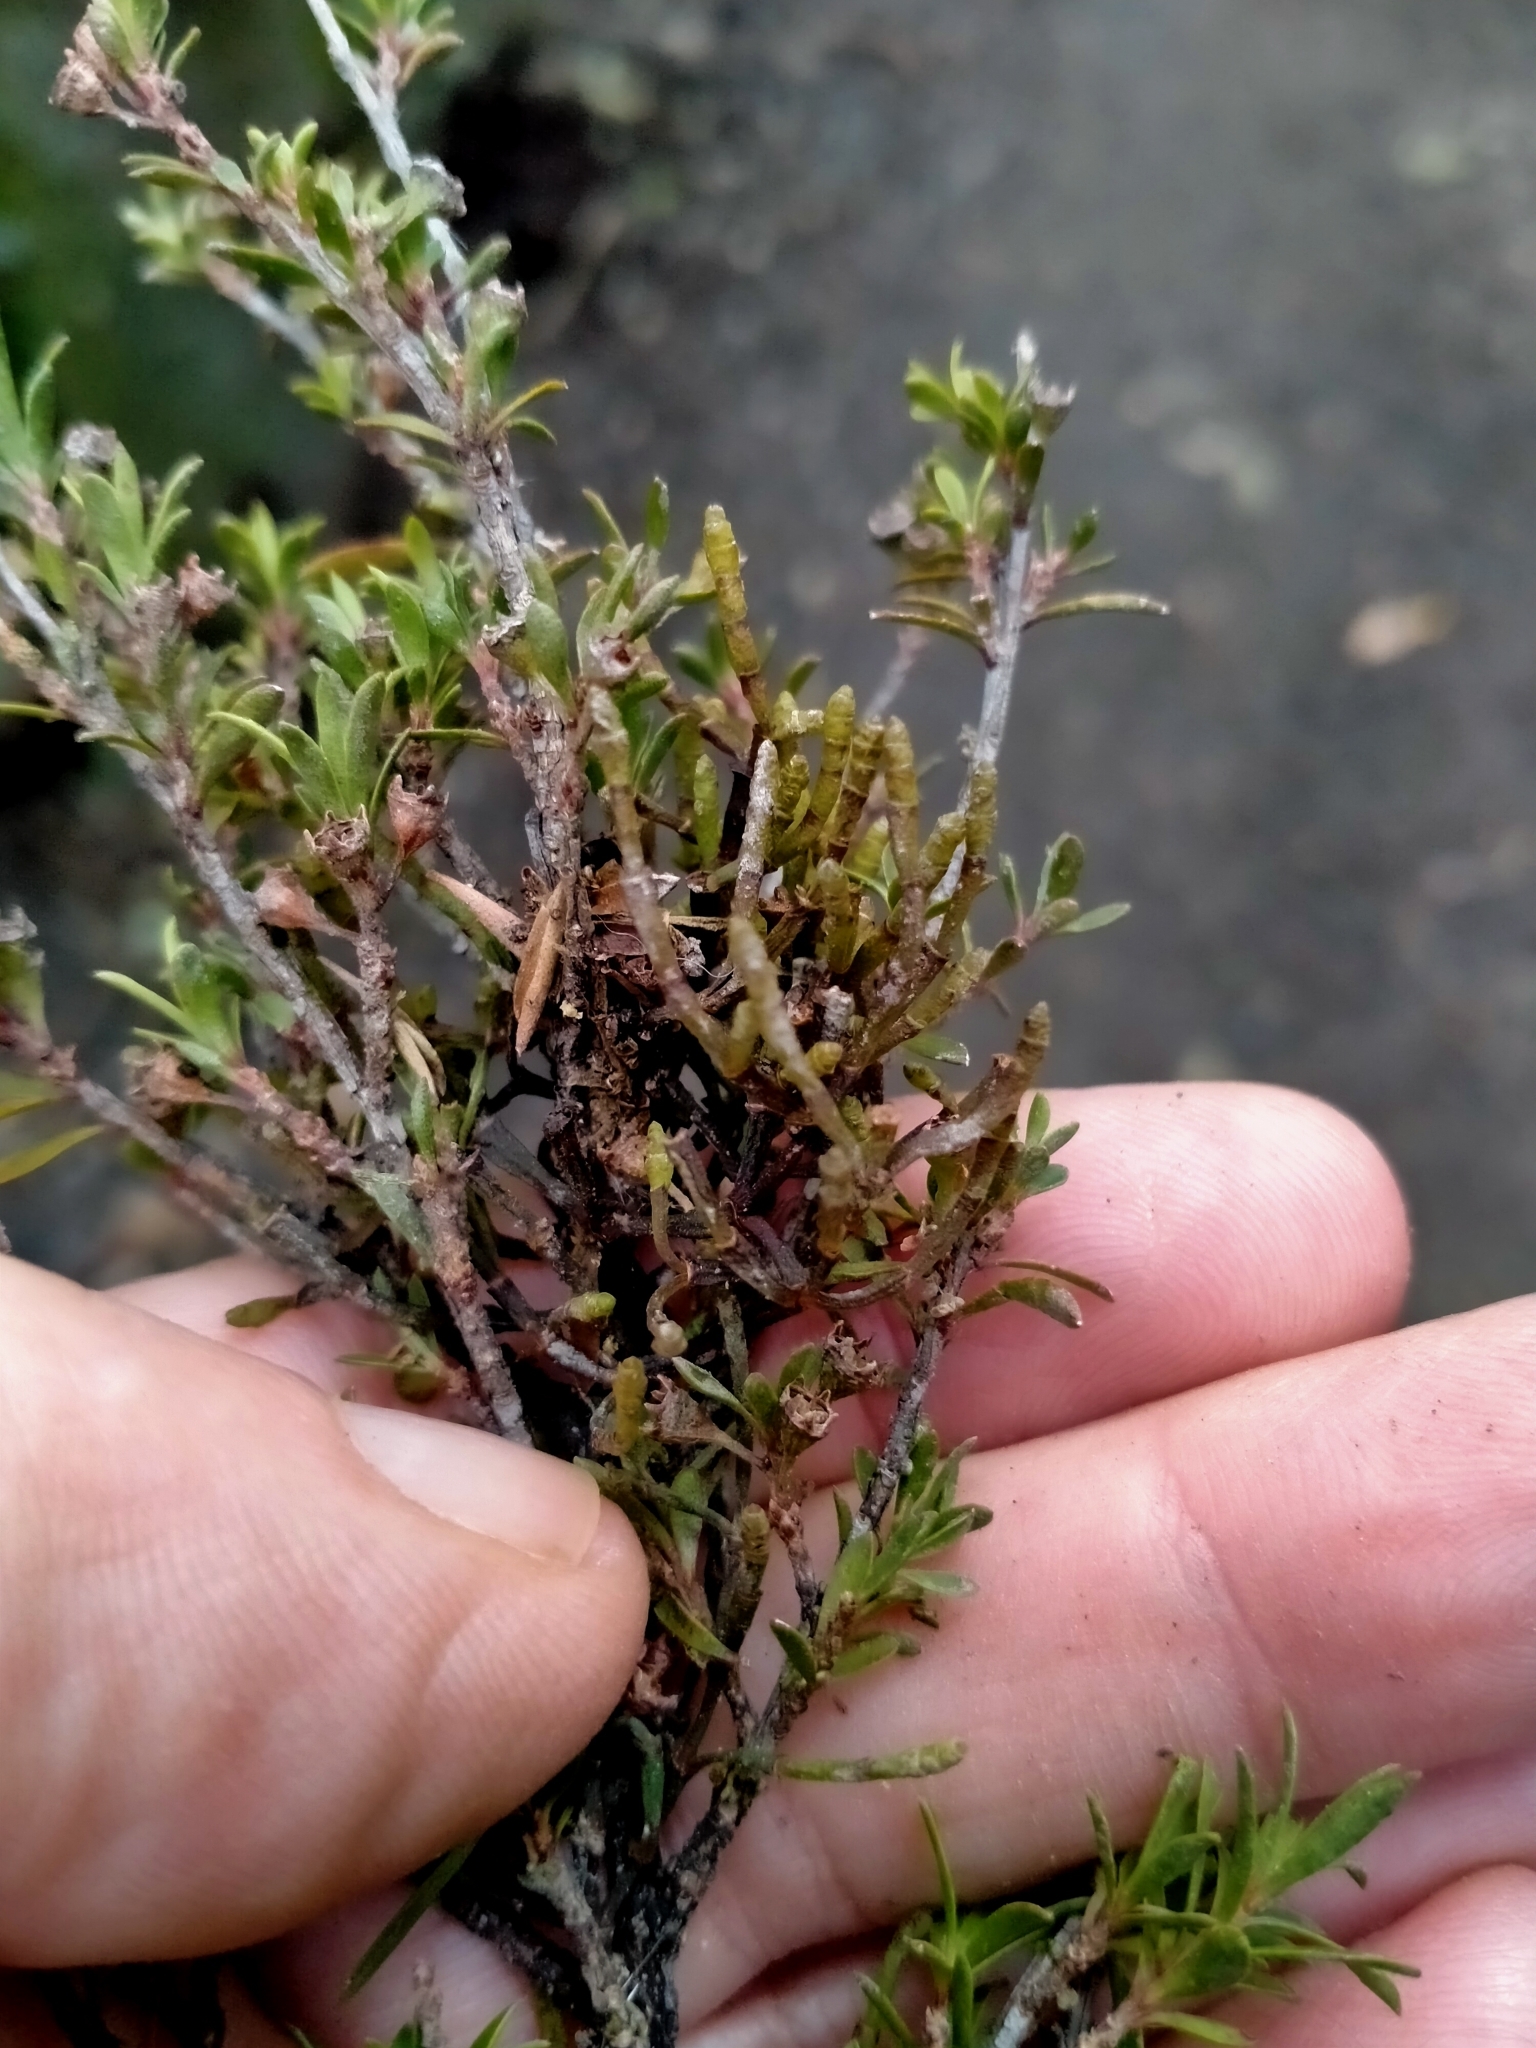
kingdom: Plantae
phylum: Tracheophyta
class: Magnoliopsida
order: Santalales
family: Viscaceae
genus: Korthalsella
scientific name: Korthalsella salicornioides
